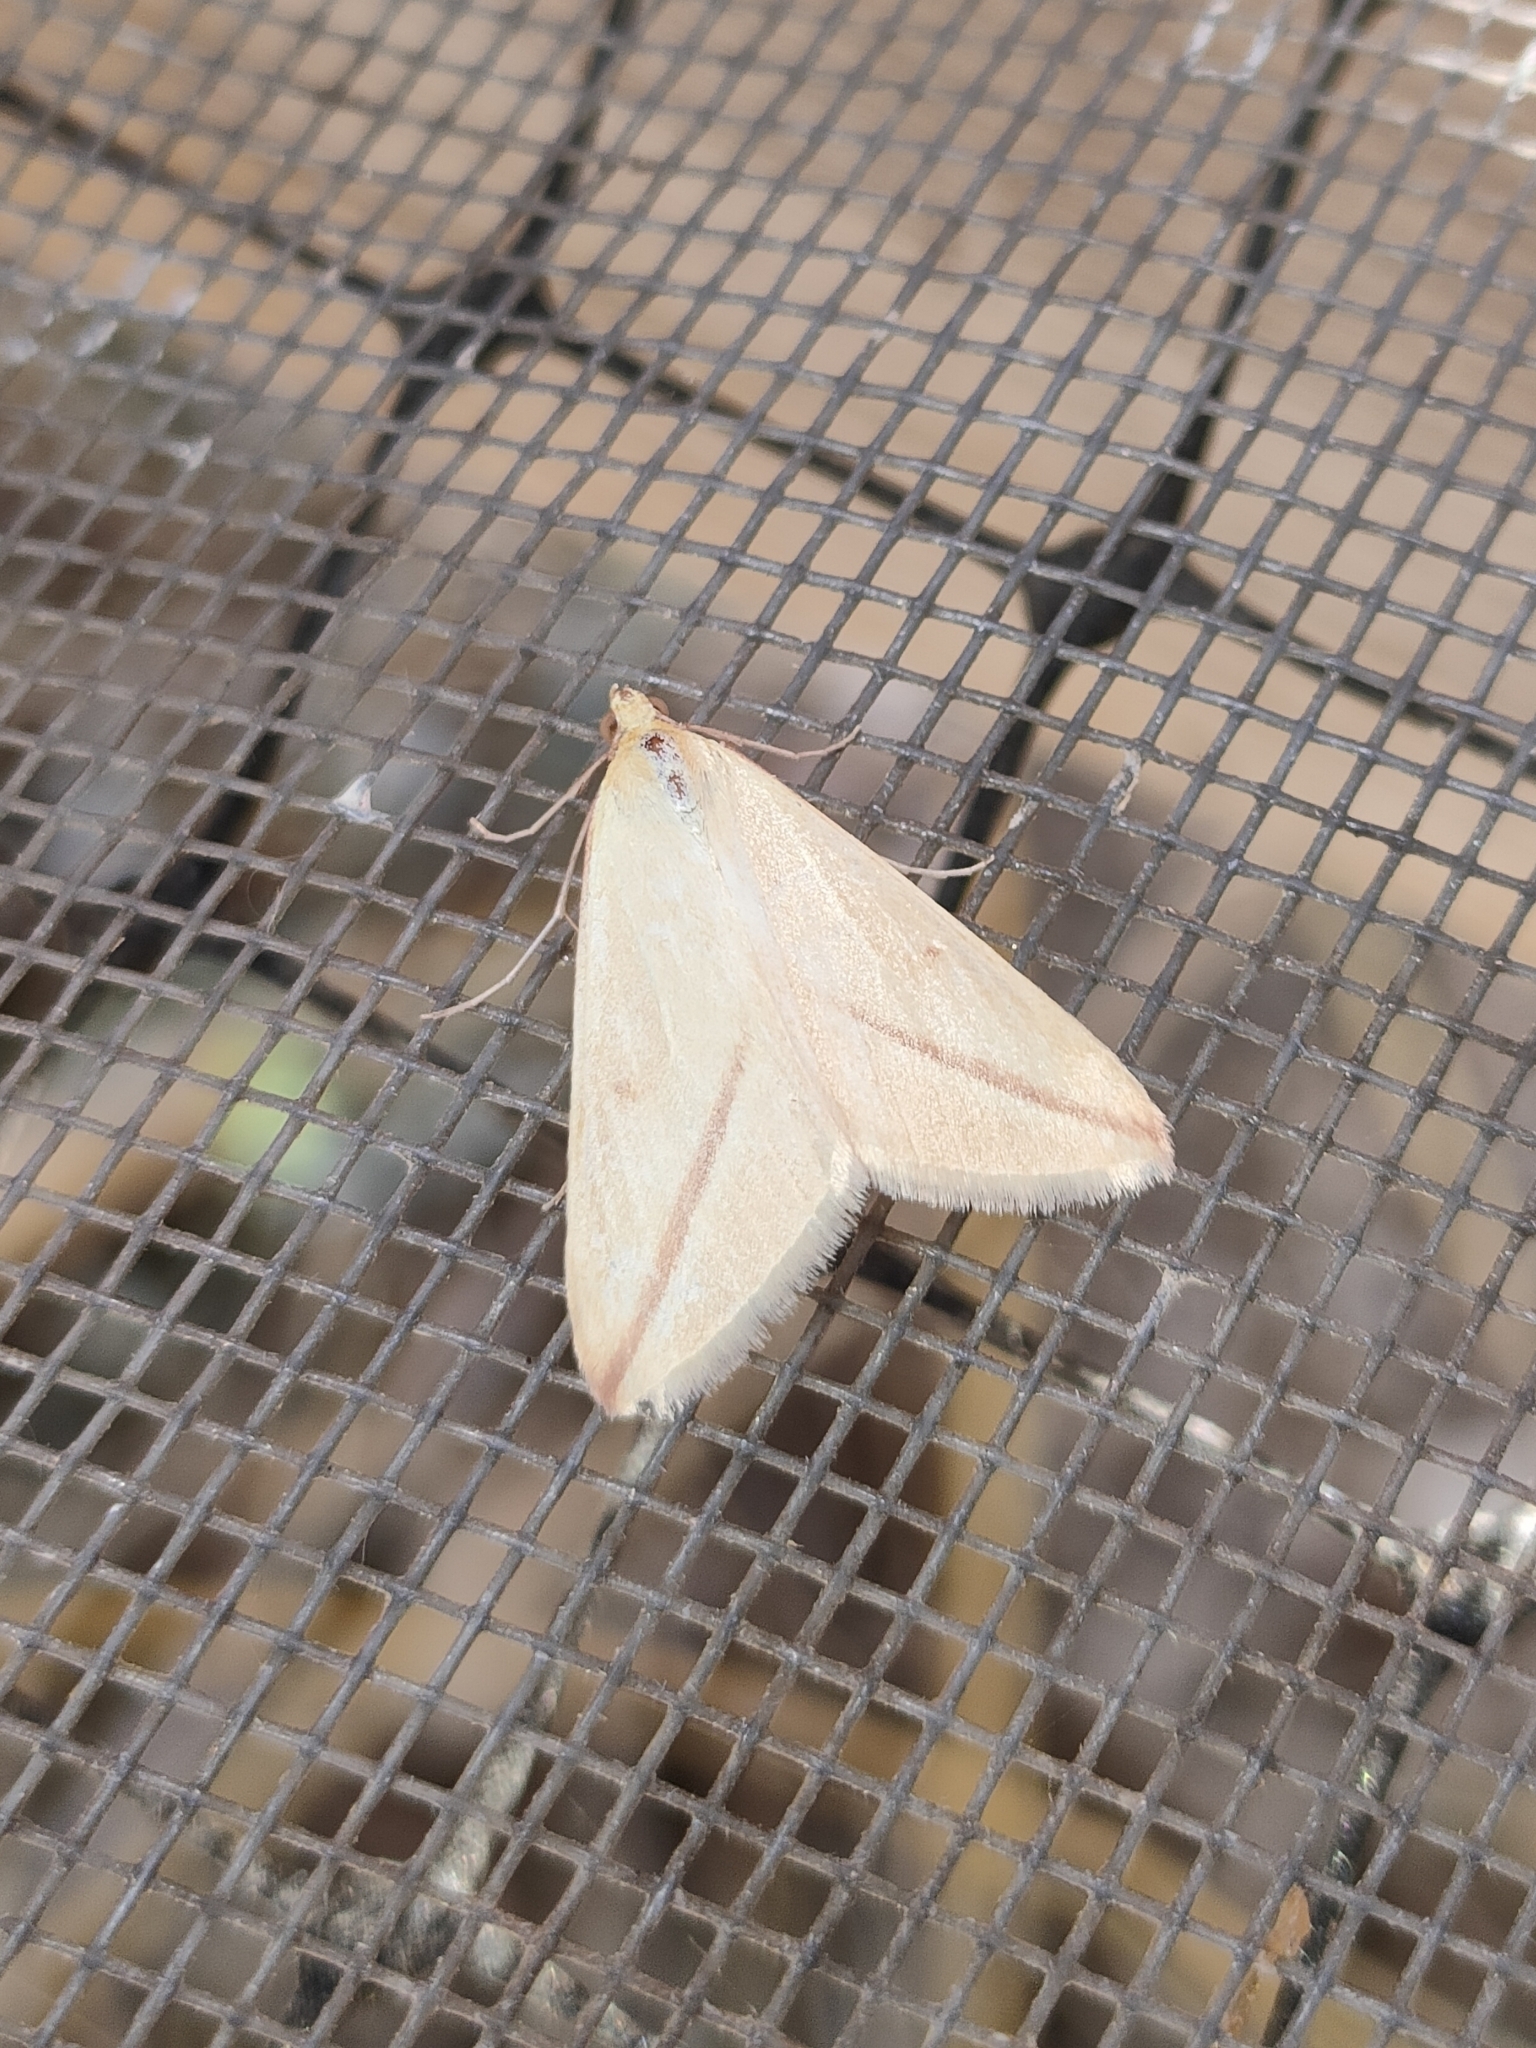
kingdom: Animalia
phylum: Arthropoda
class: Insecta
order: Lepidoptera
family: Geometridae
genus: Rhodometra
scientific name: Rhodometra sacraria
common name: Vestal
